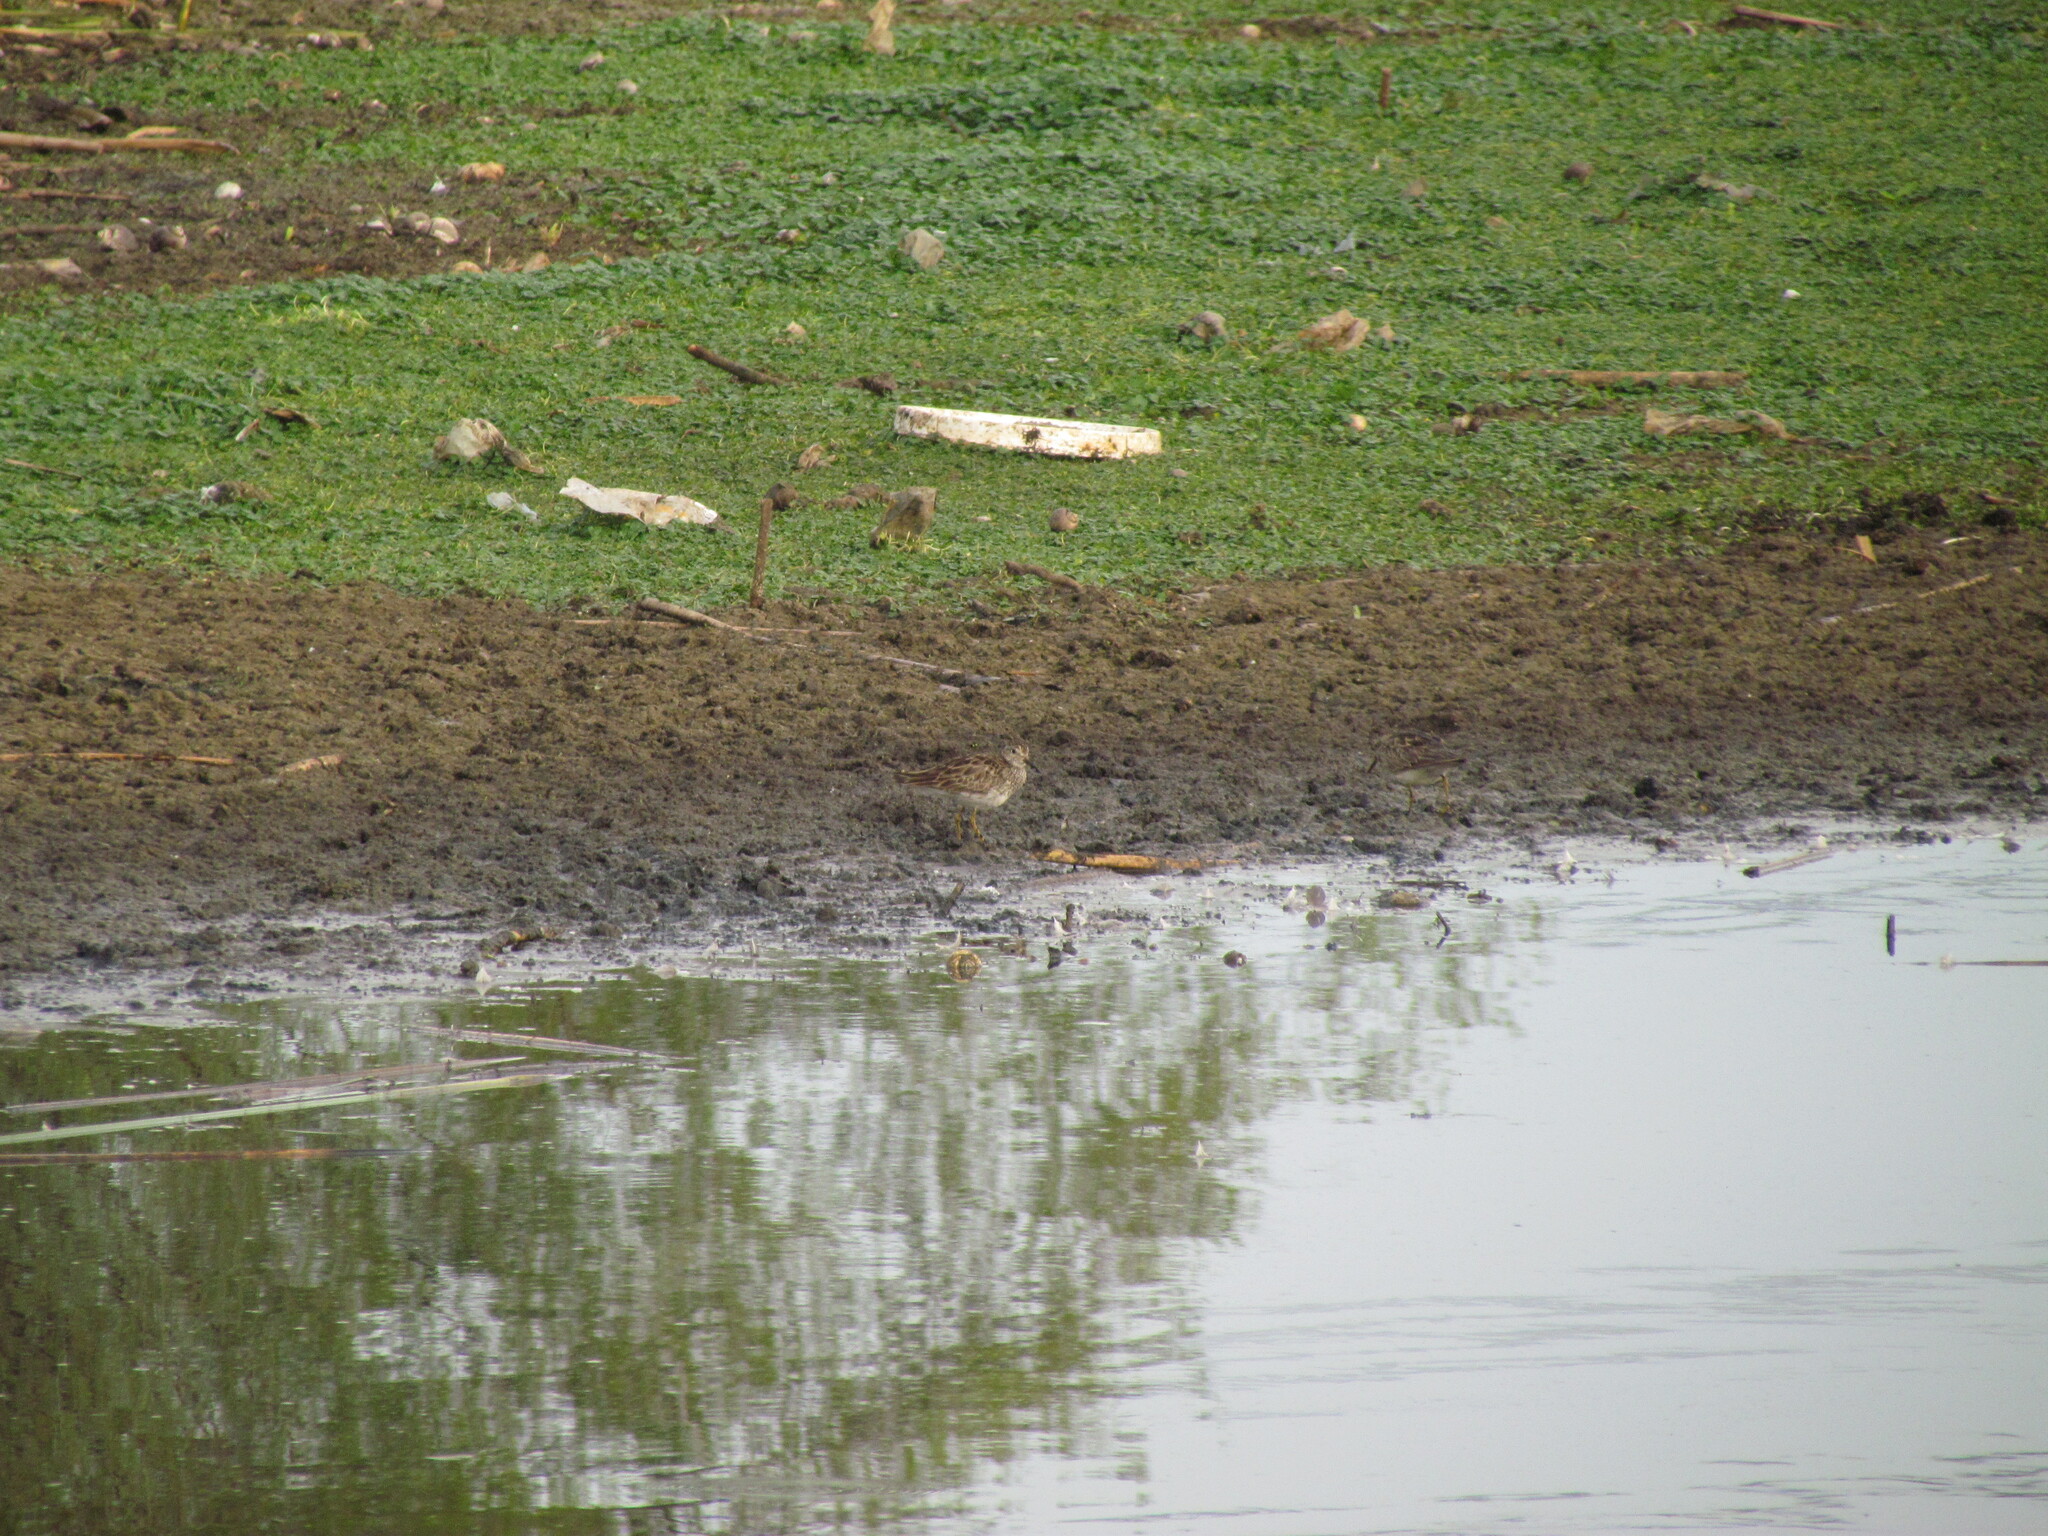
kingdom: Animalia
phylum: Chordata
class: Aves
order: Charadriiformes
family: Scolopacidae
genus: Calidris
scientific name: Calidris melanotos
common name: Pectoral sandpiper
